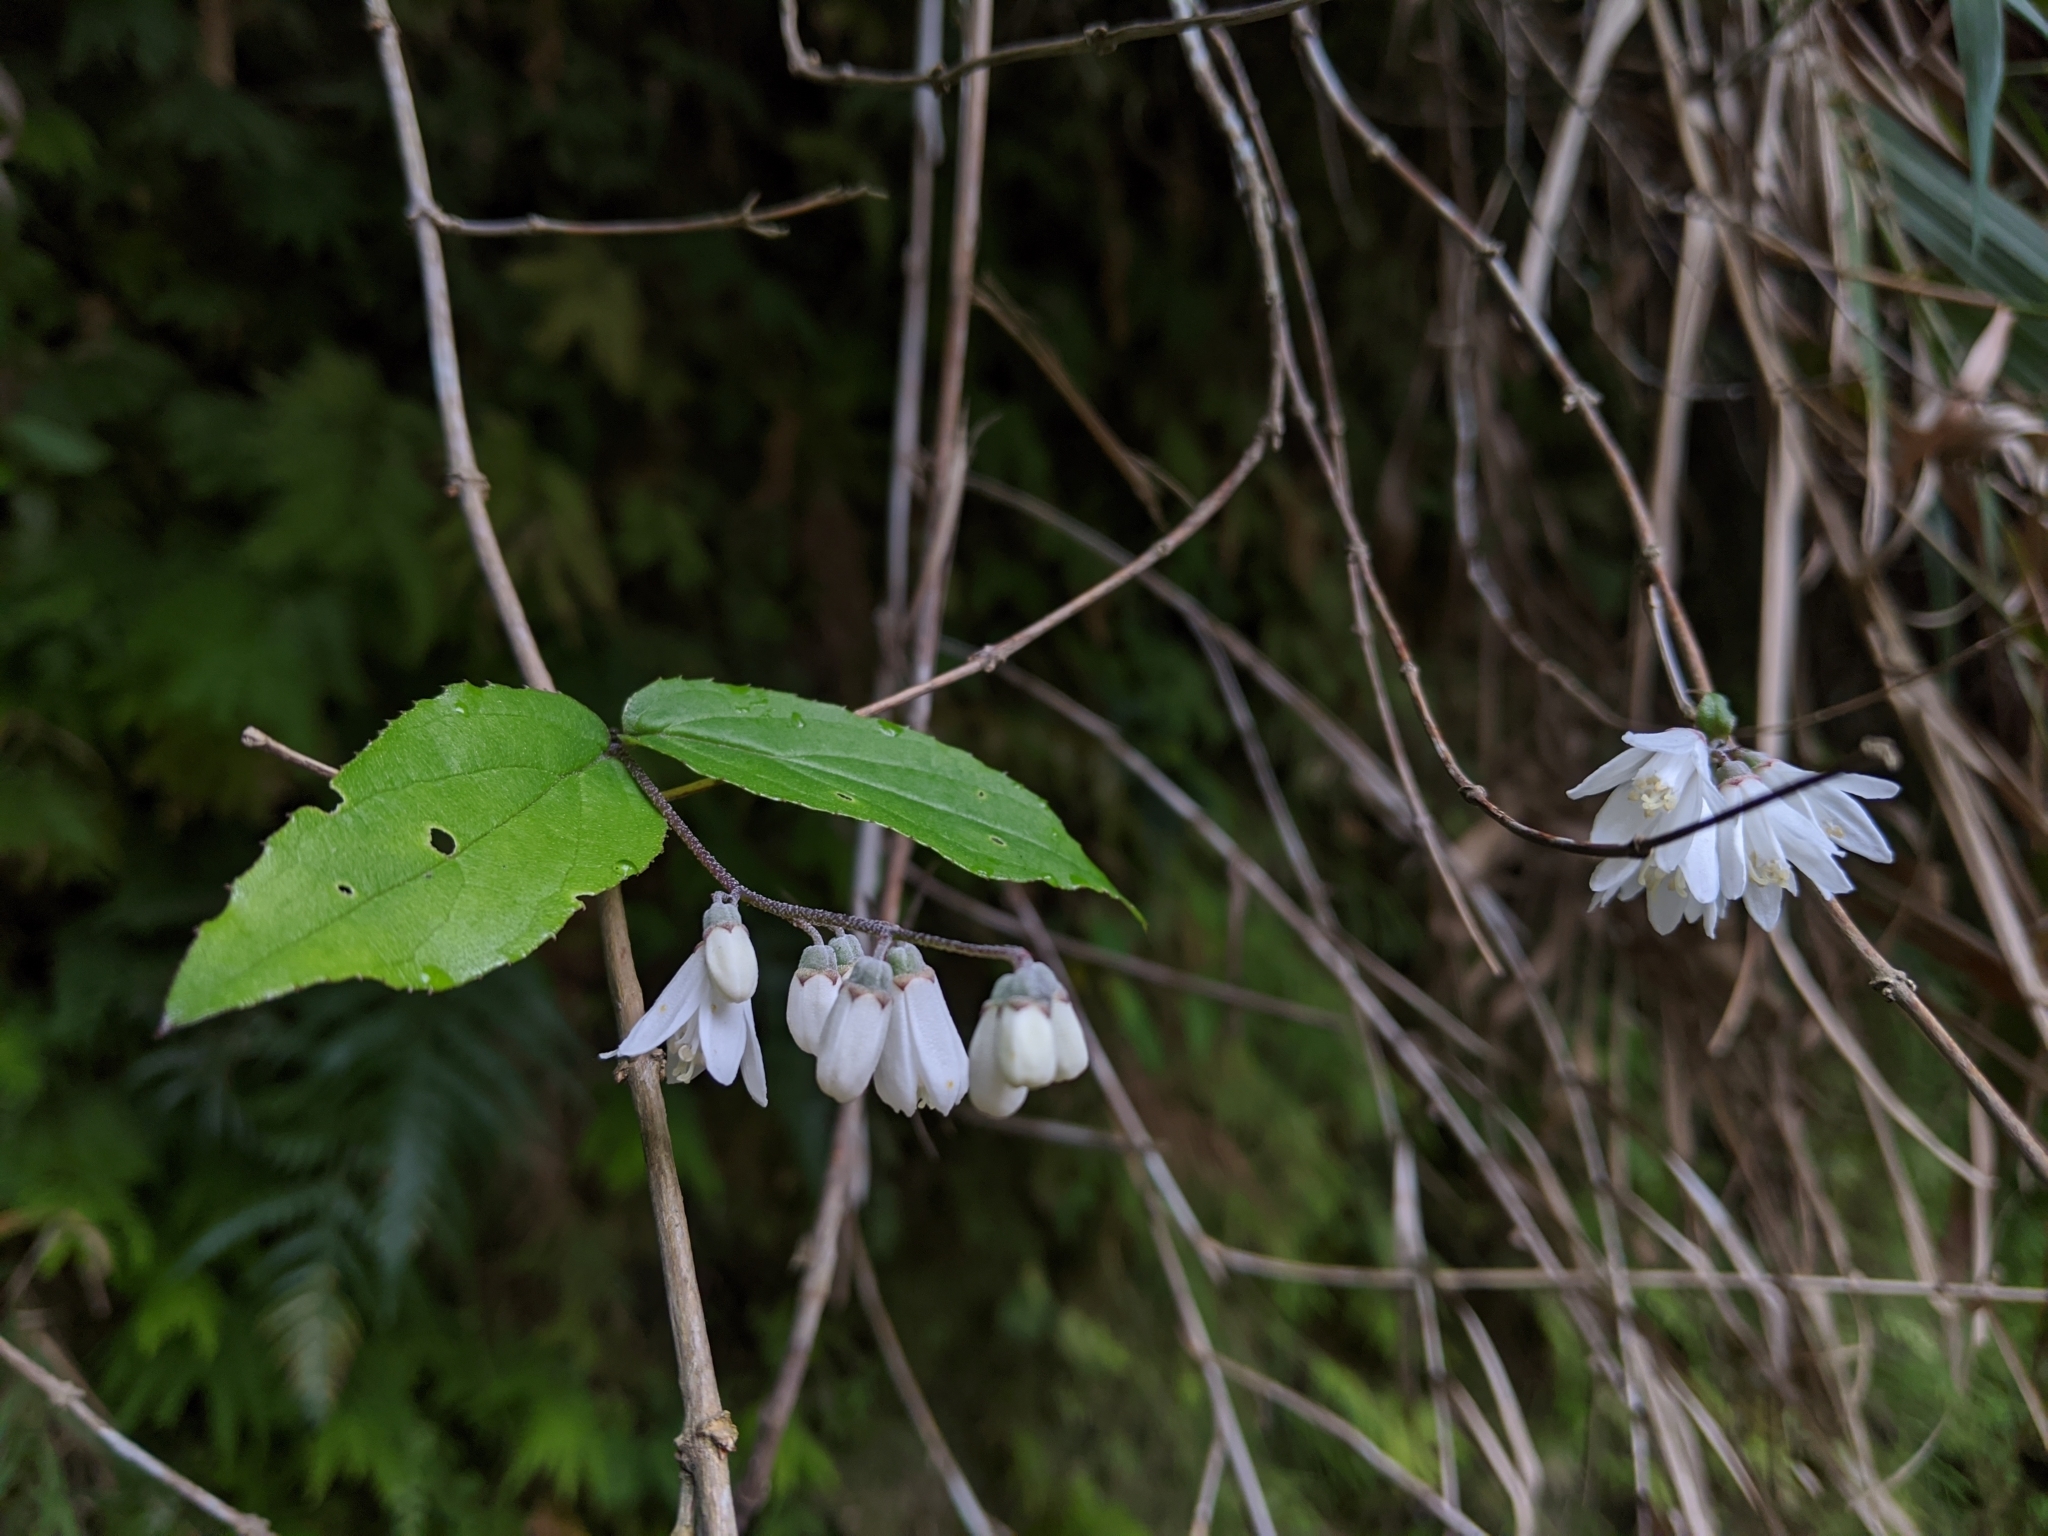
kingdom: Plantae
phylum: Tracheophyta
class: Magnoliopsida
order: Cornales
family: Hydrangeaceae
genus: Deutzia
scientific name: Deutzia taiwanensis
